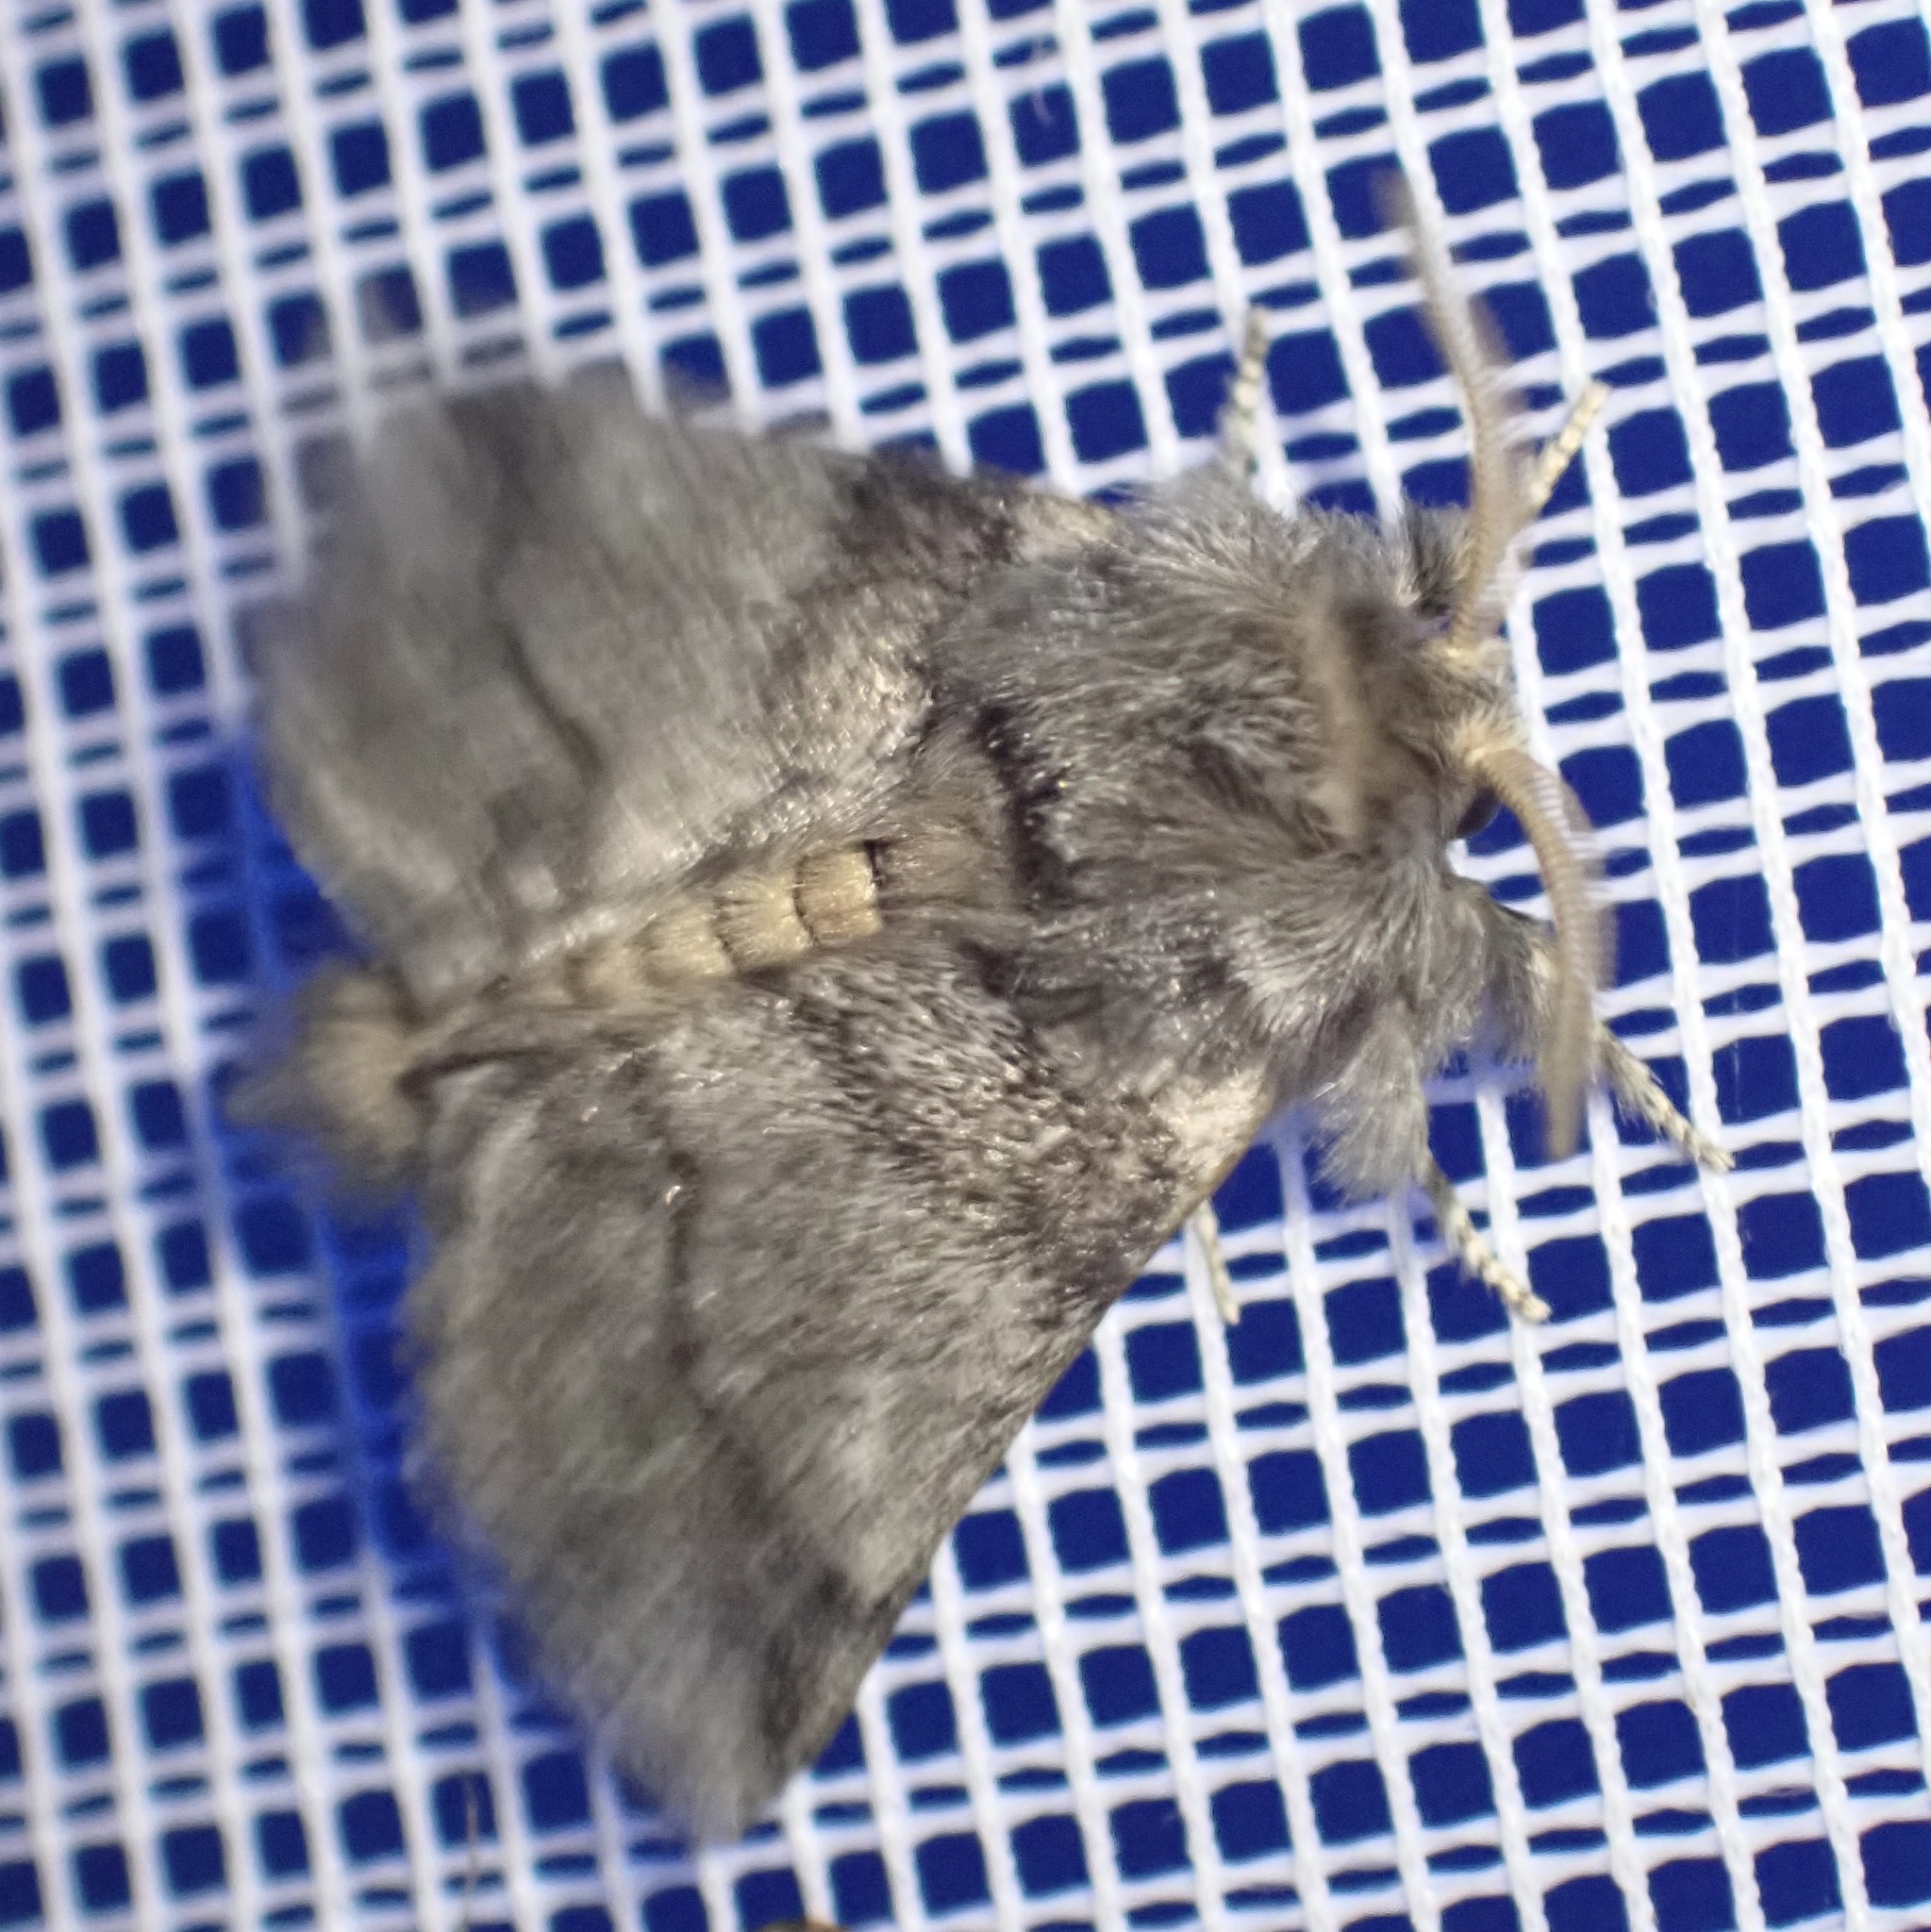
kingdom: Animalia
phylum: Arthropoda
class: Insecta
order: Lepidoptera
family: Notodontidae
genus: Thaumetopoea
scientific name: Thaumetopoea processionea
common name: Oak processionea
